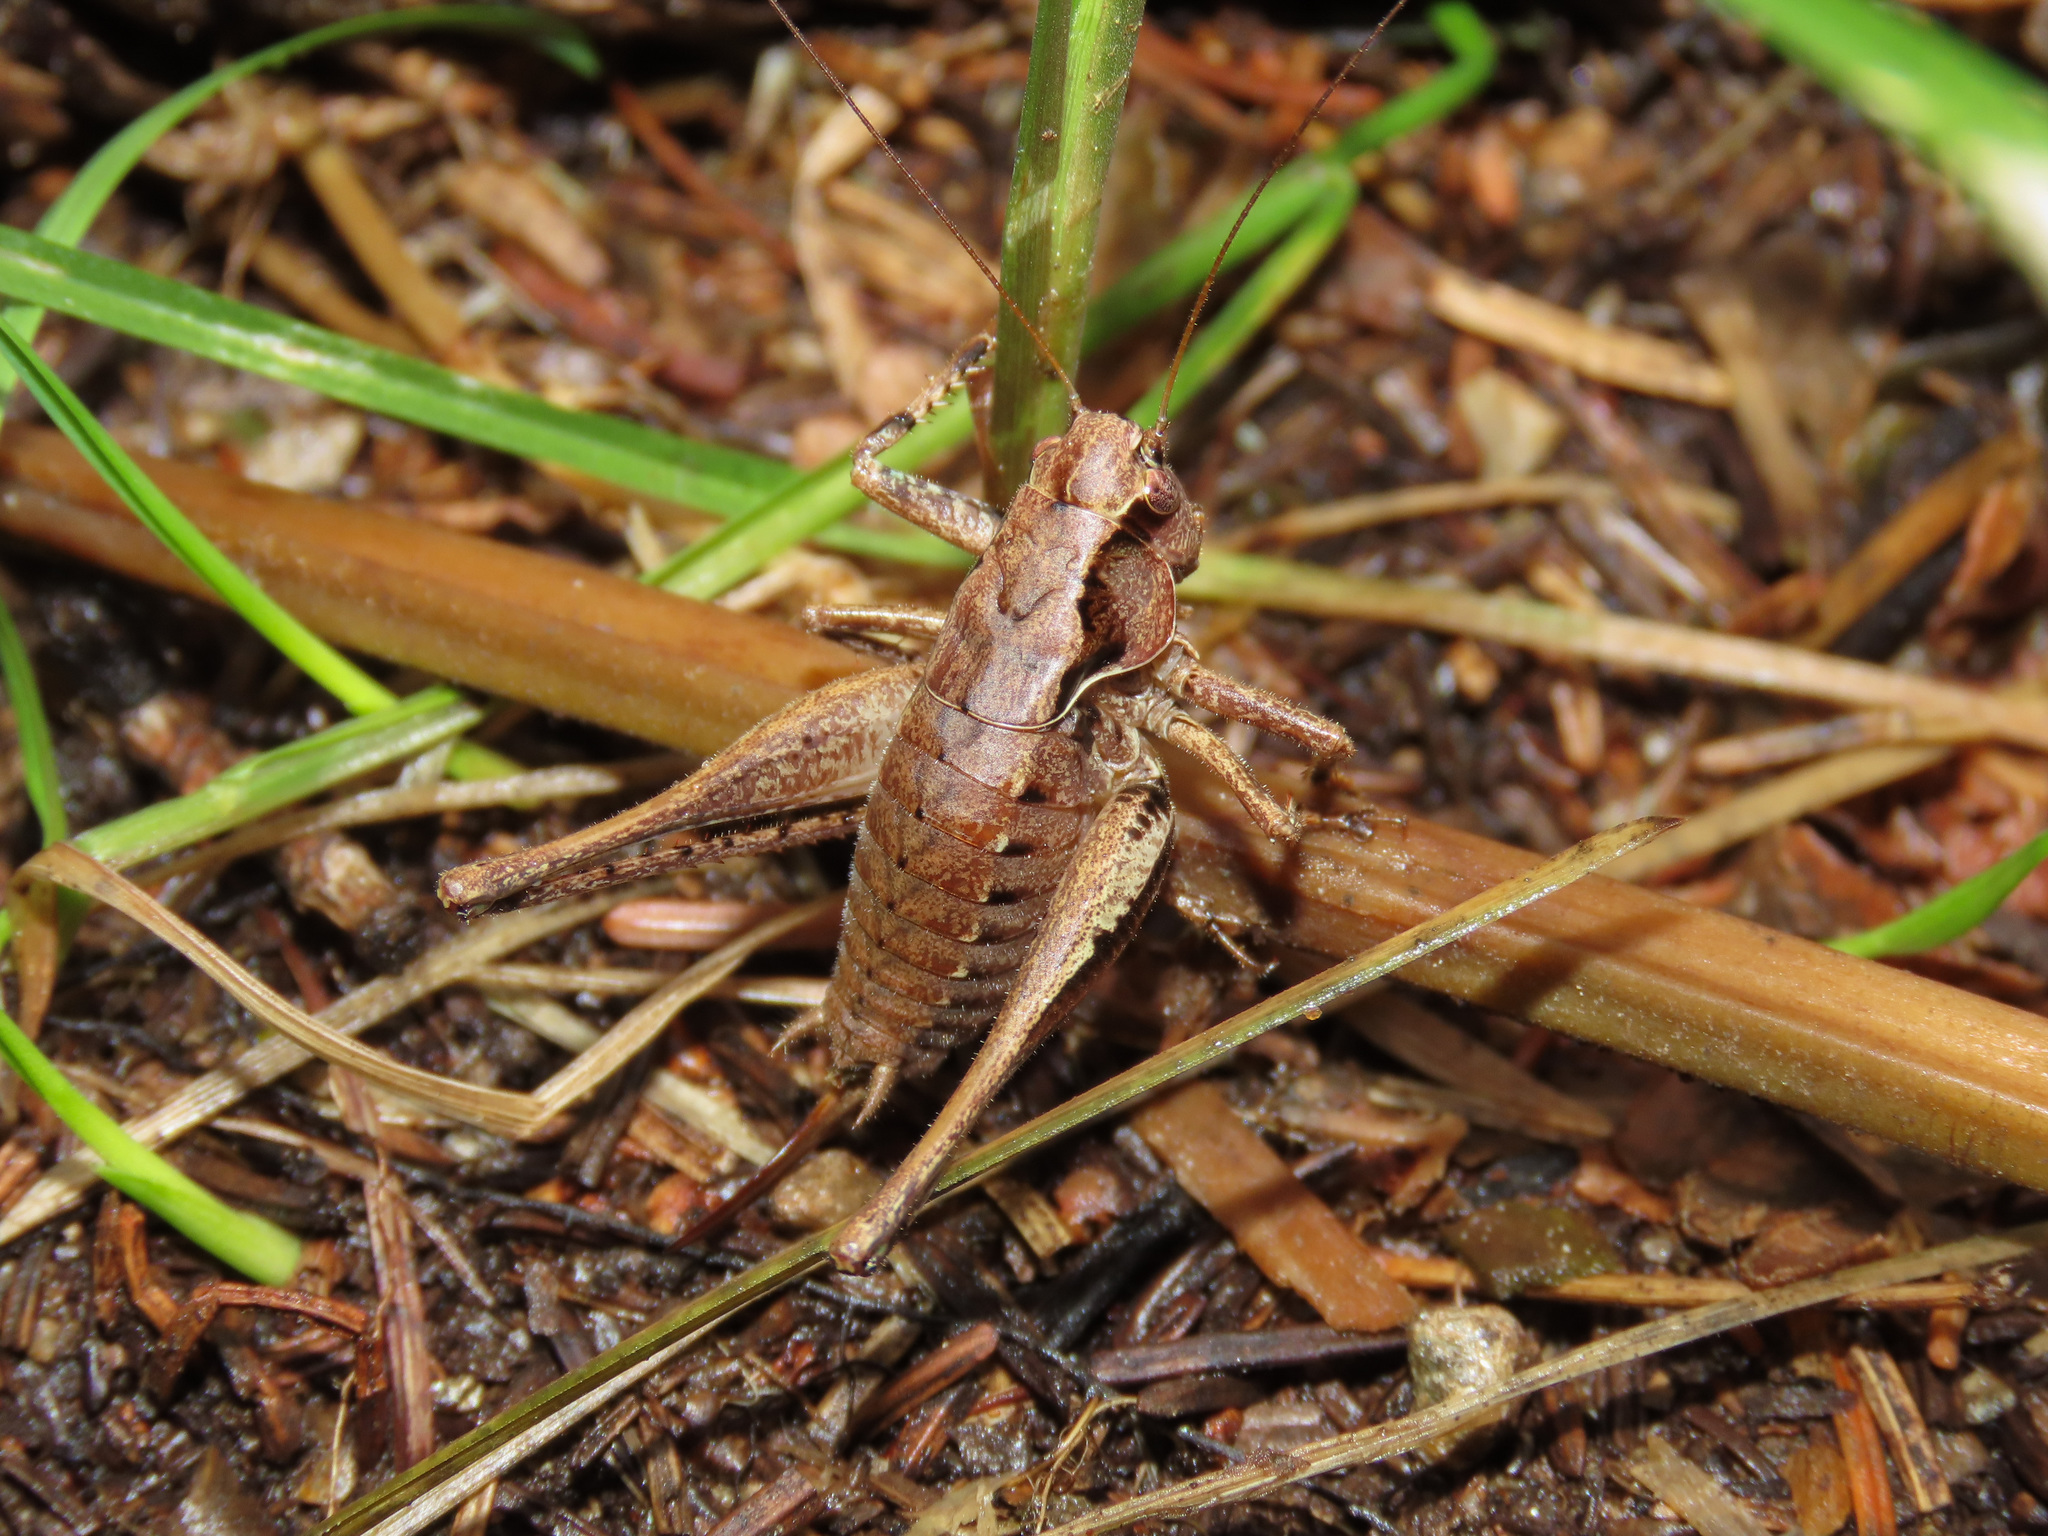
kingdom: Animalia
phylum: Arthropoda
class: Insecta
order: Orthoptera
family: Tettigoniidae
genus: Pholidoptera
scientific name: Pholidoptera griseoaptera
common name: Dark bush-cricket
